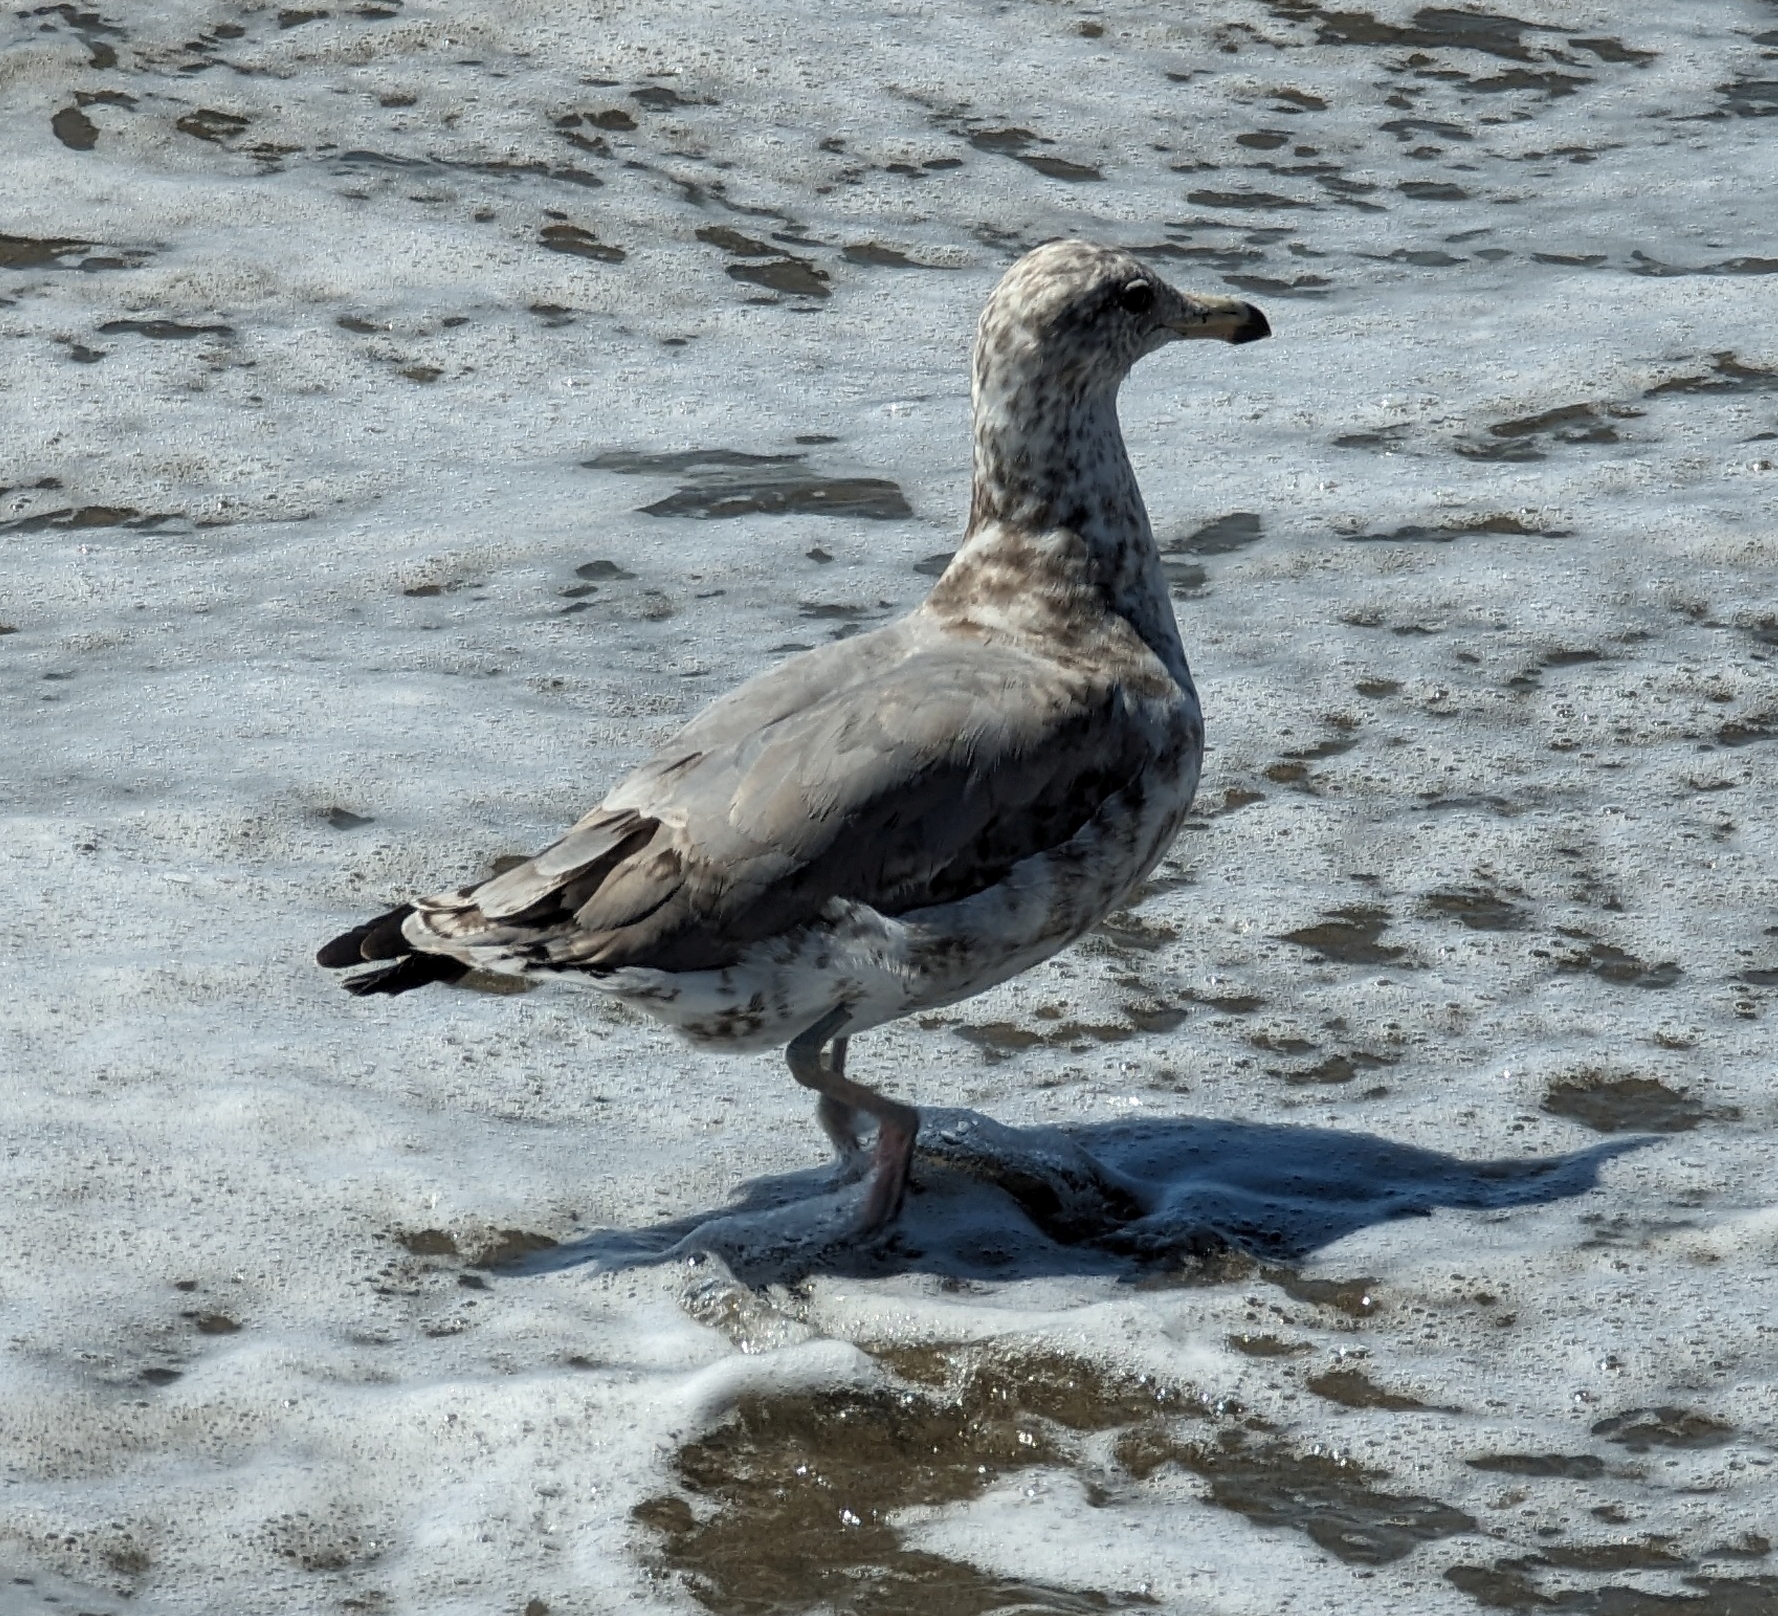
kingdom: Animalia
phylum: Chordata
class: Aves
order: Charadriiformes
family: Laridae
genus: Larus
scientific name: Larus californicus
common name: California gull
